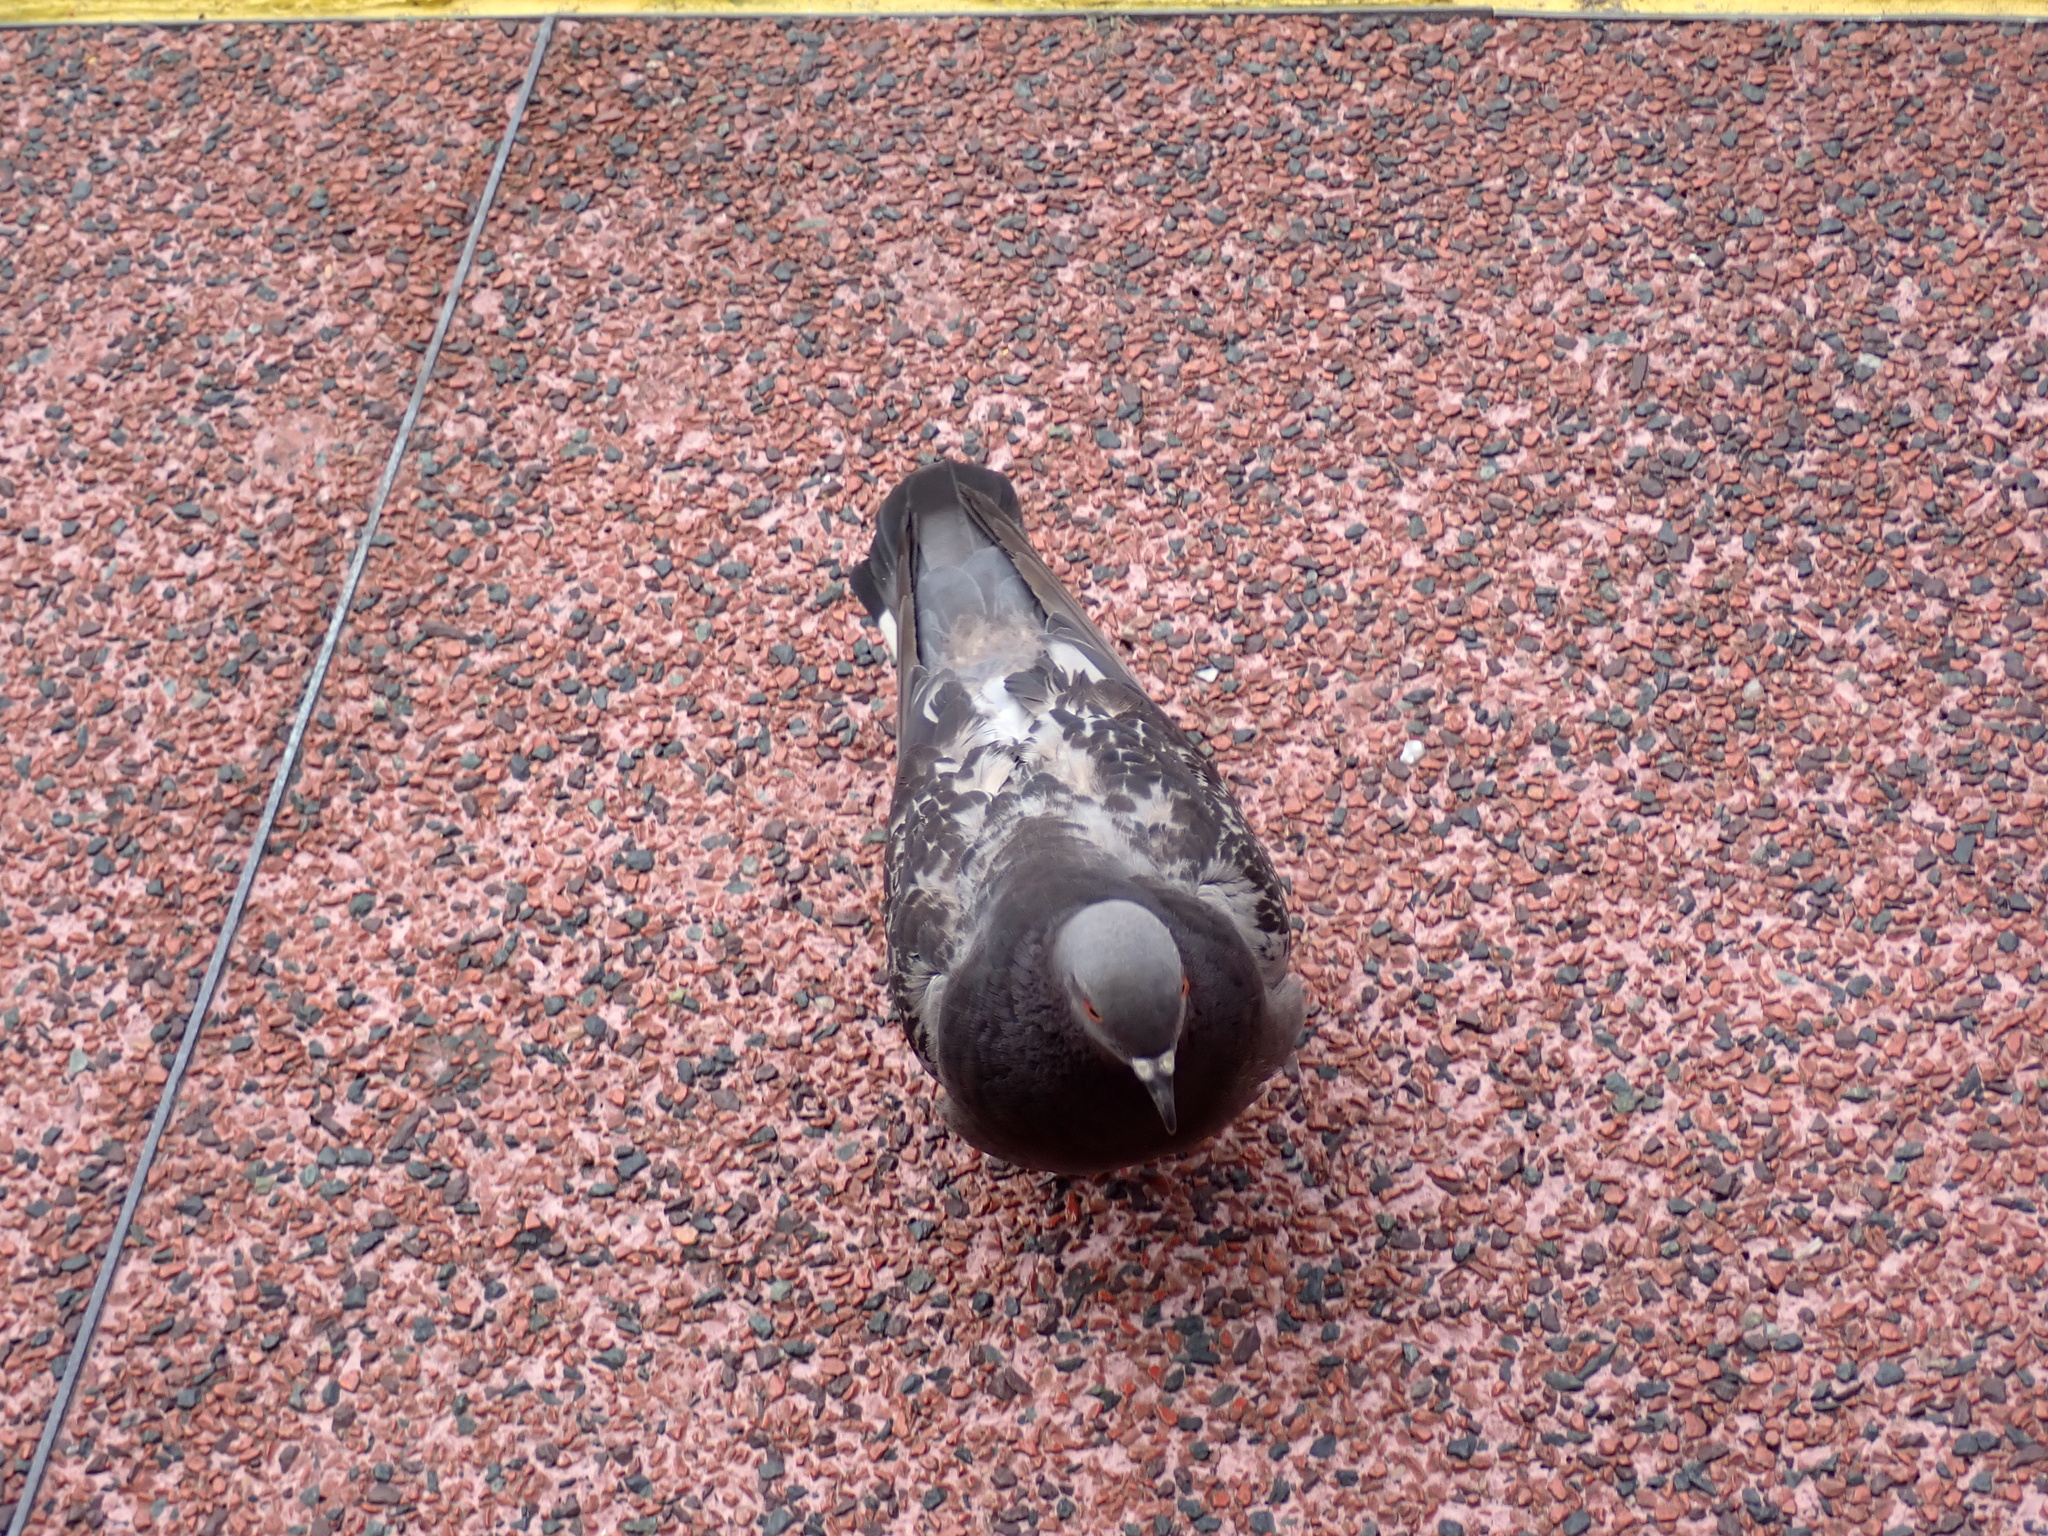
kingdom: Animalia
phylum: Chordata
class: Aves
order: Columbiformes
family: Columbidae
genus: Columba
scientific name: Columba livia
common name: Rock pigeon
